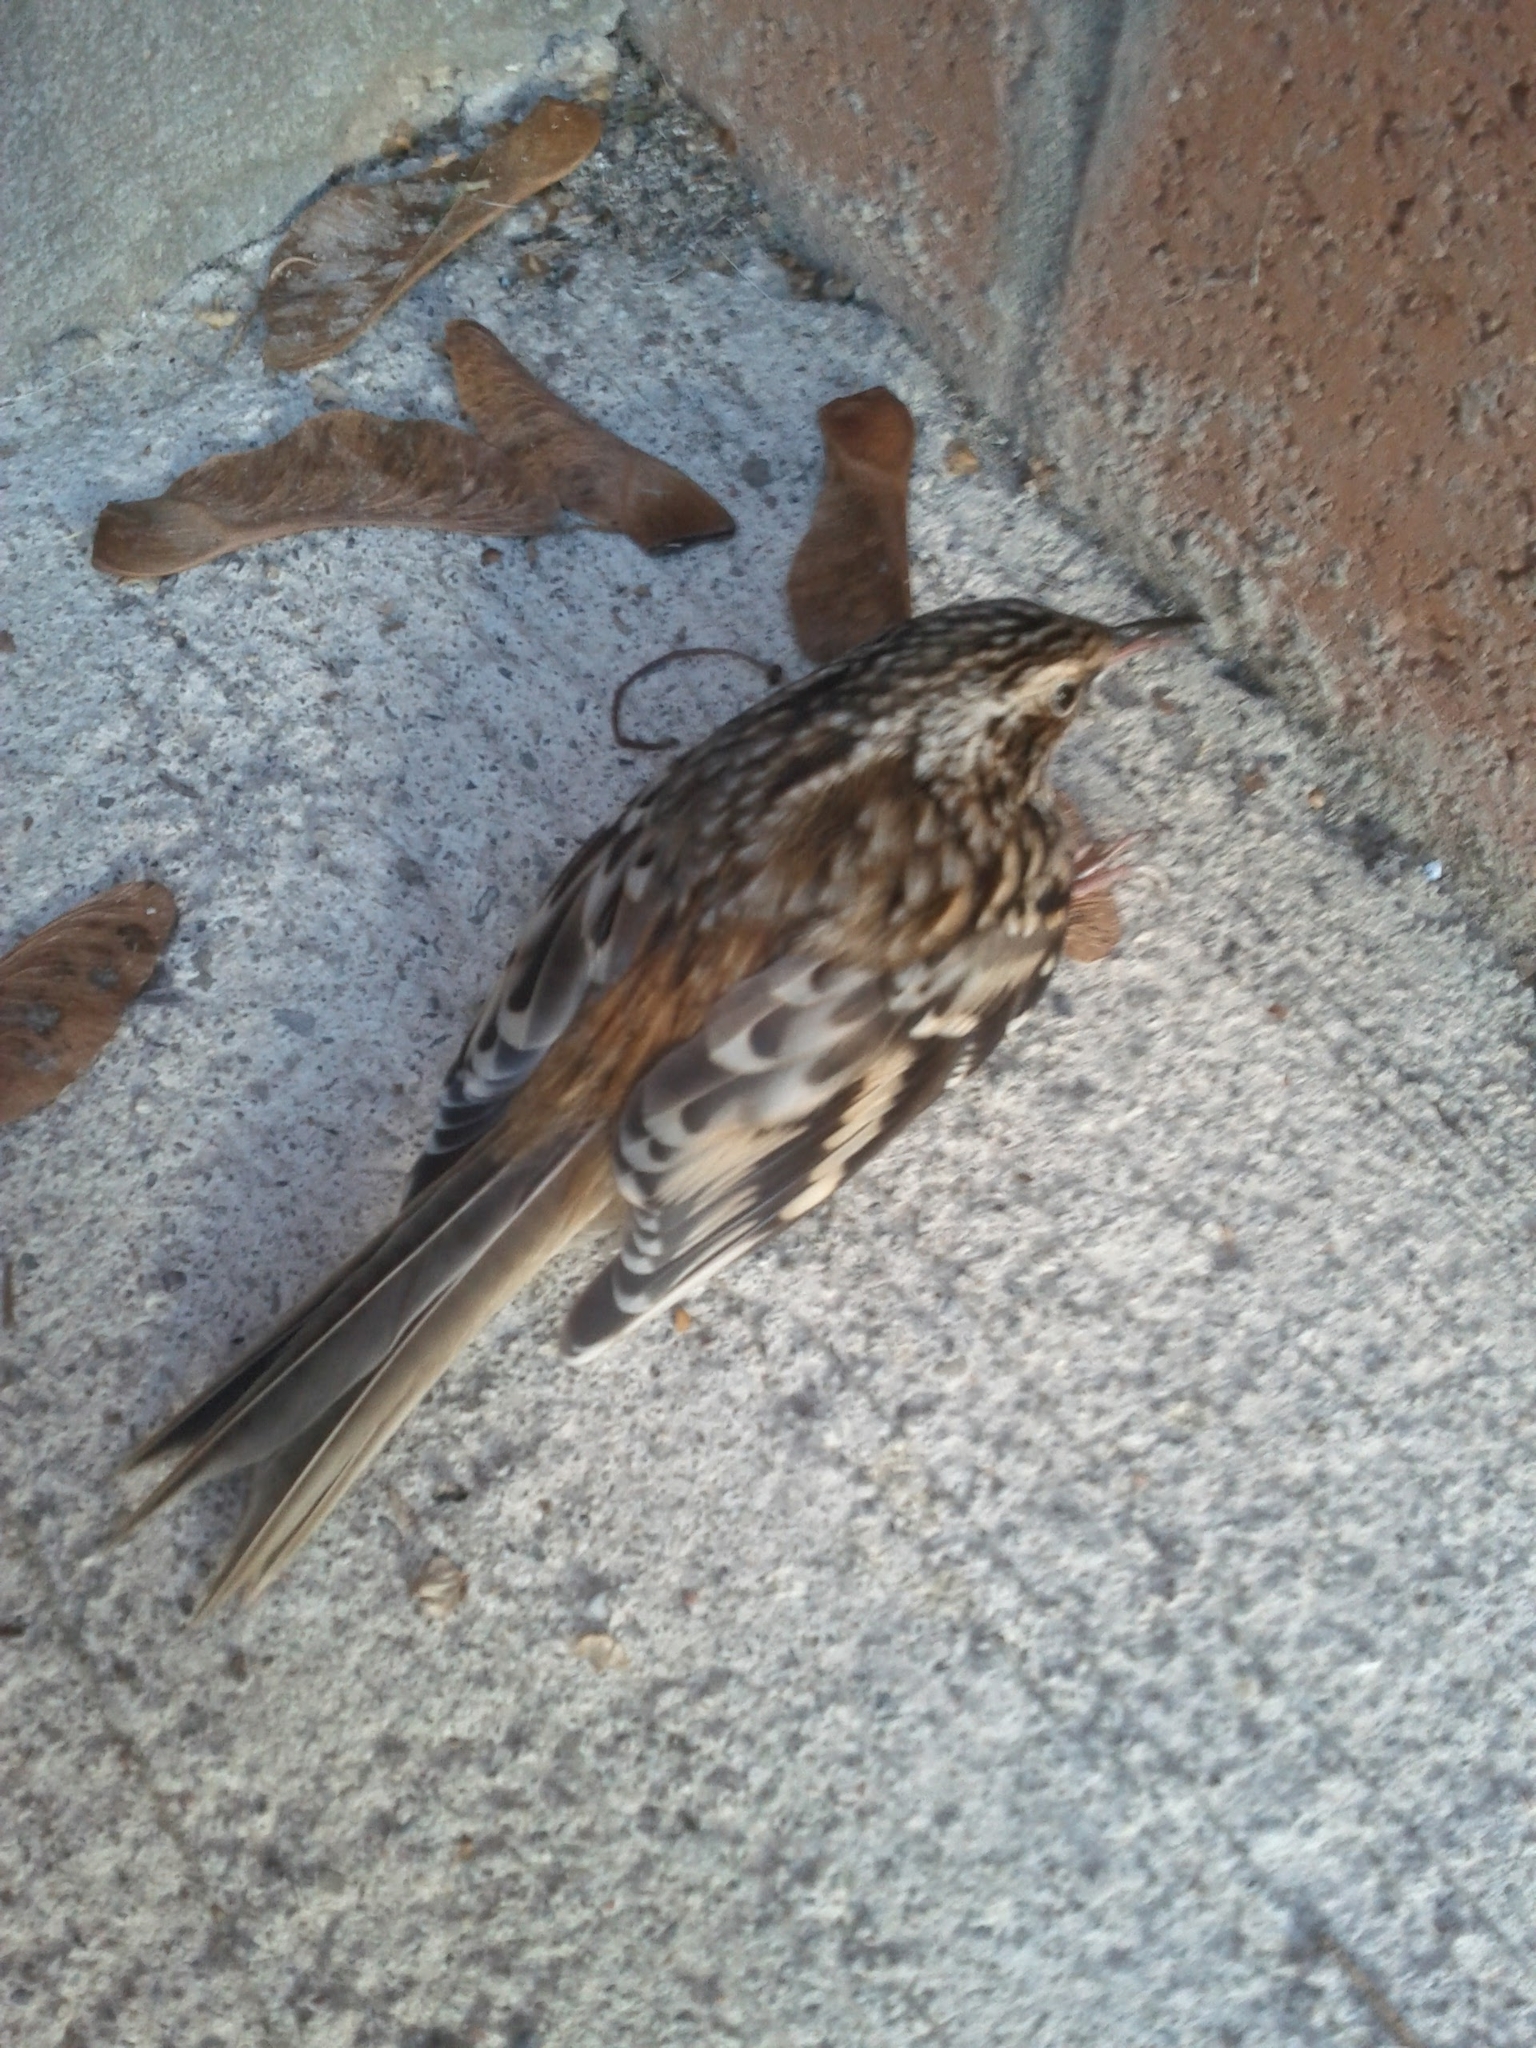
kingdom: Animalia
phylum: Chordata
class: Aves
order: Passeriformes
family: Certhiidae
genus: Certhia
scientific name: Certhia americana
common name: Brown creeper
